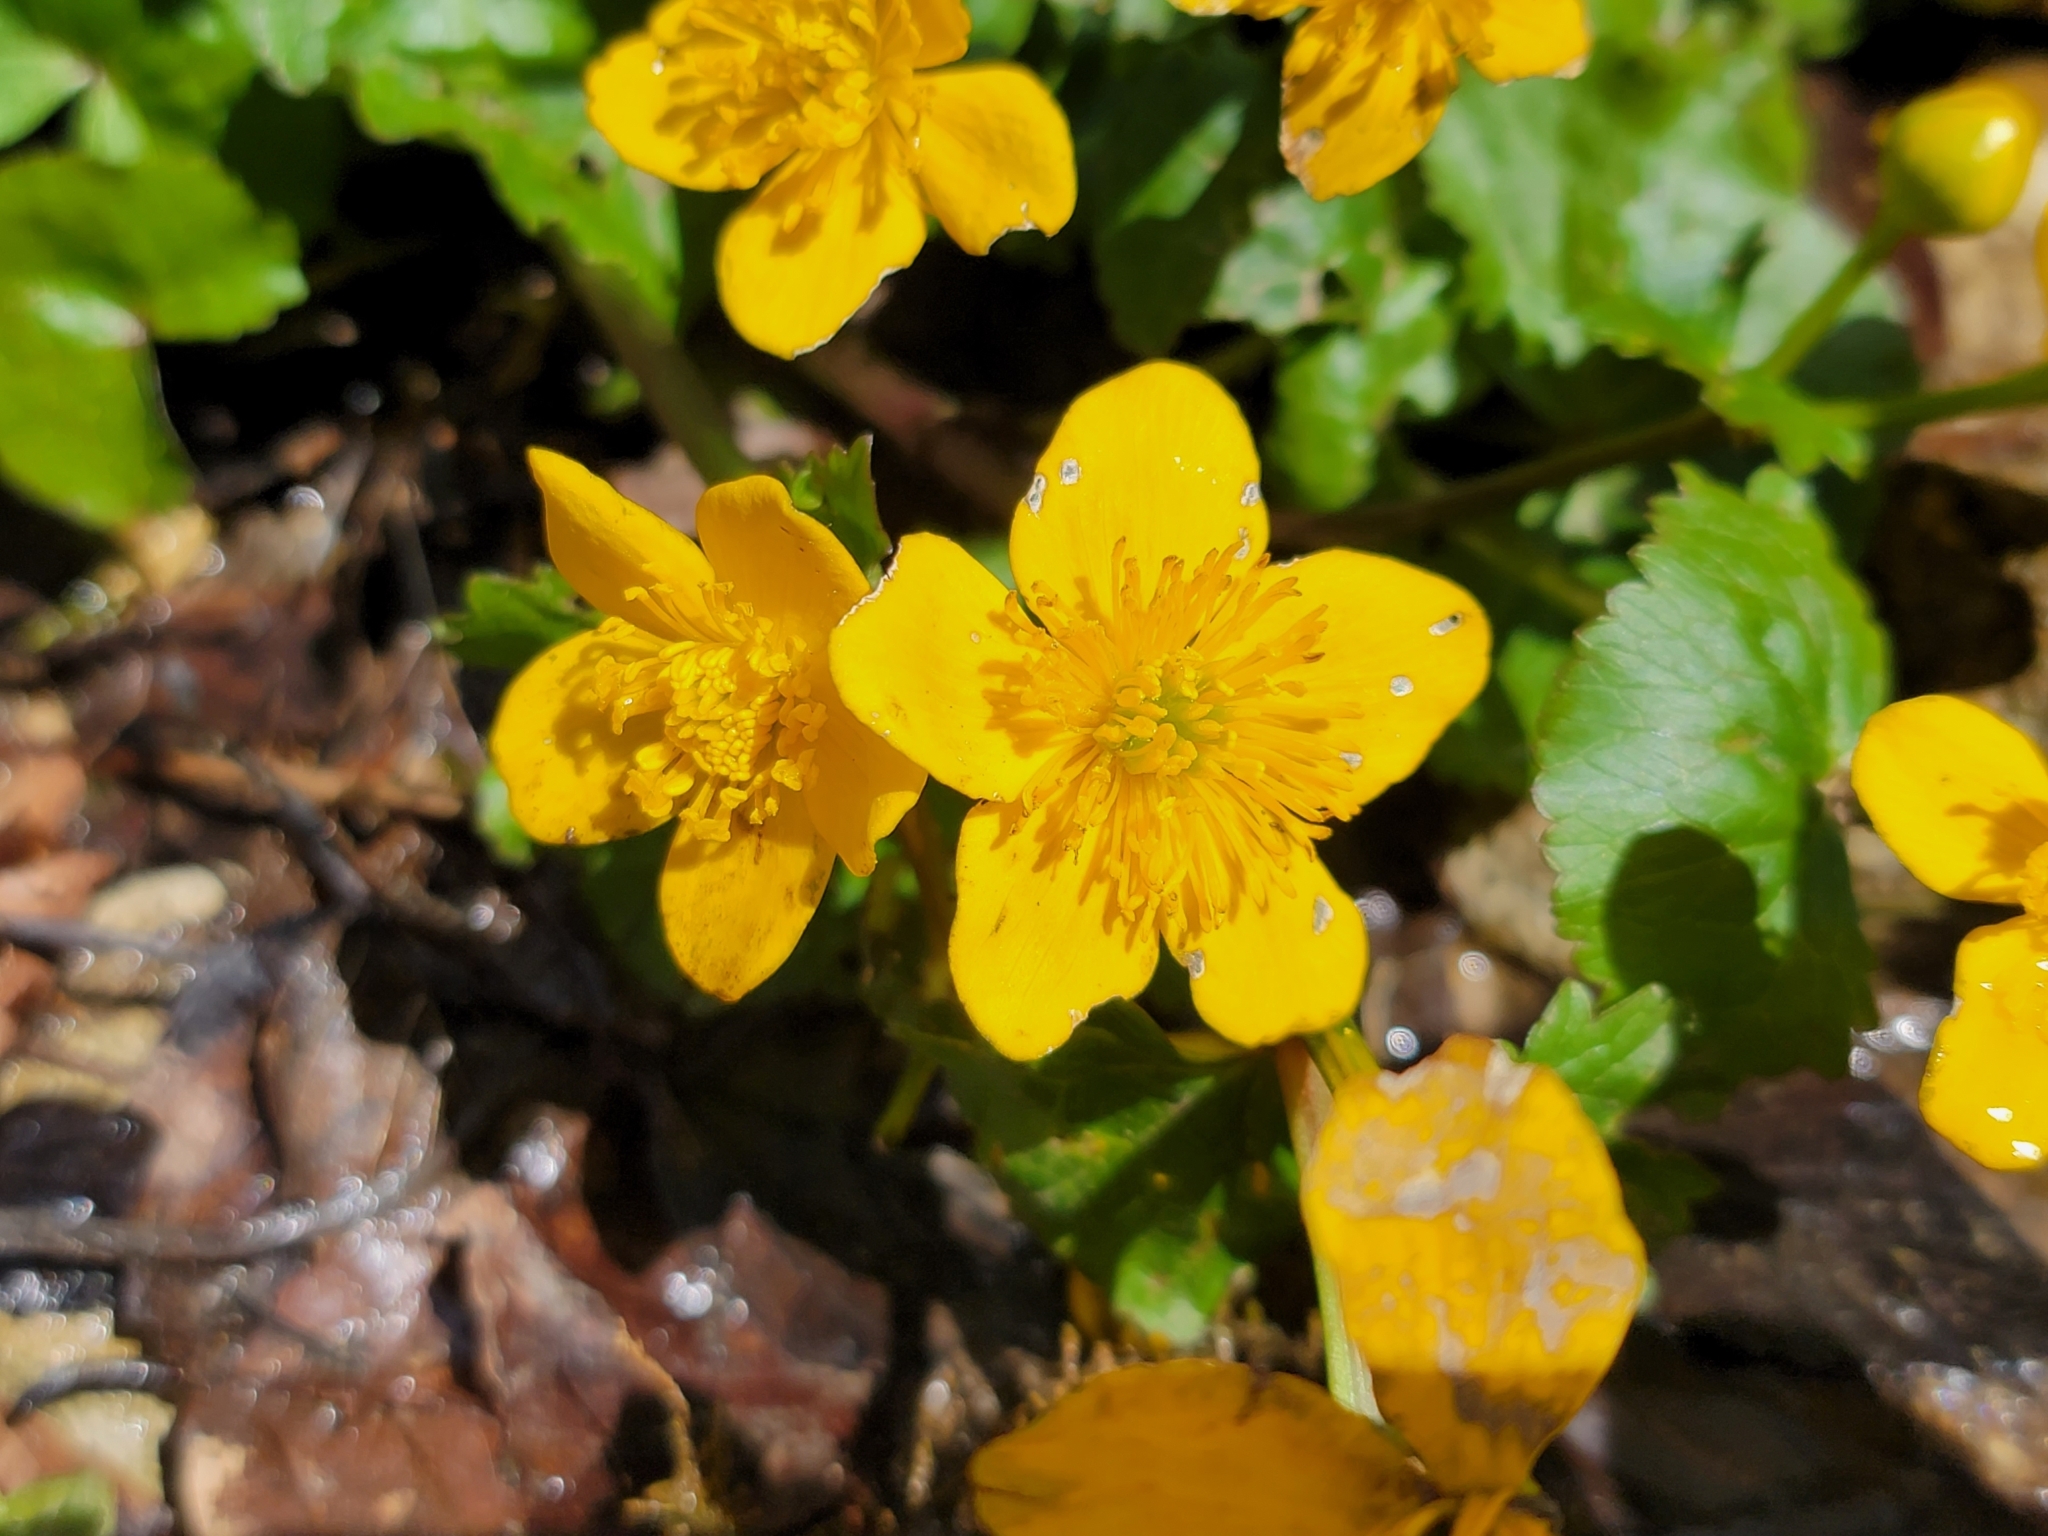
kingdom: Plantae
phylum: Tracheophyta
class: Magnoliopsida
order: Ranunculales
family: Ranunculaceae
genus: Caltha
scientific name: Caltha palustris
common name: Marsh marigold
